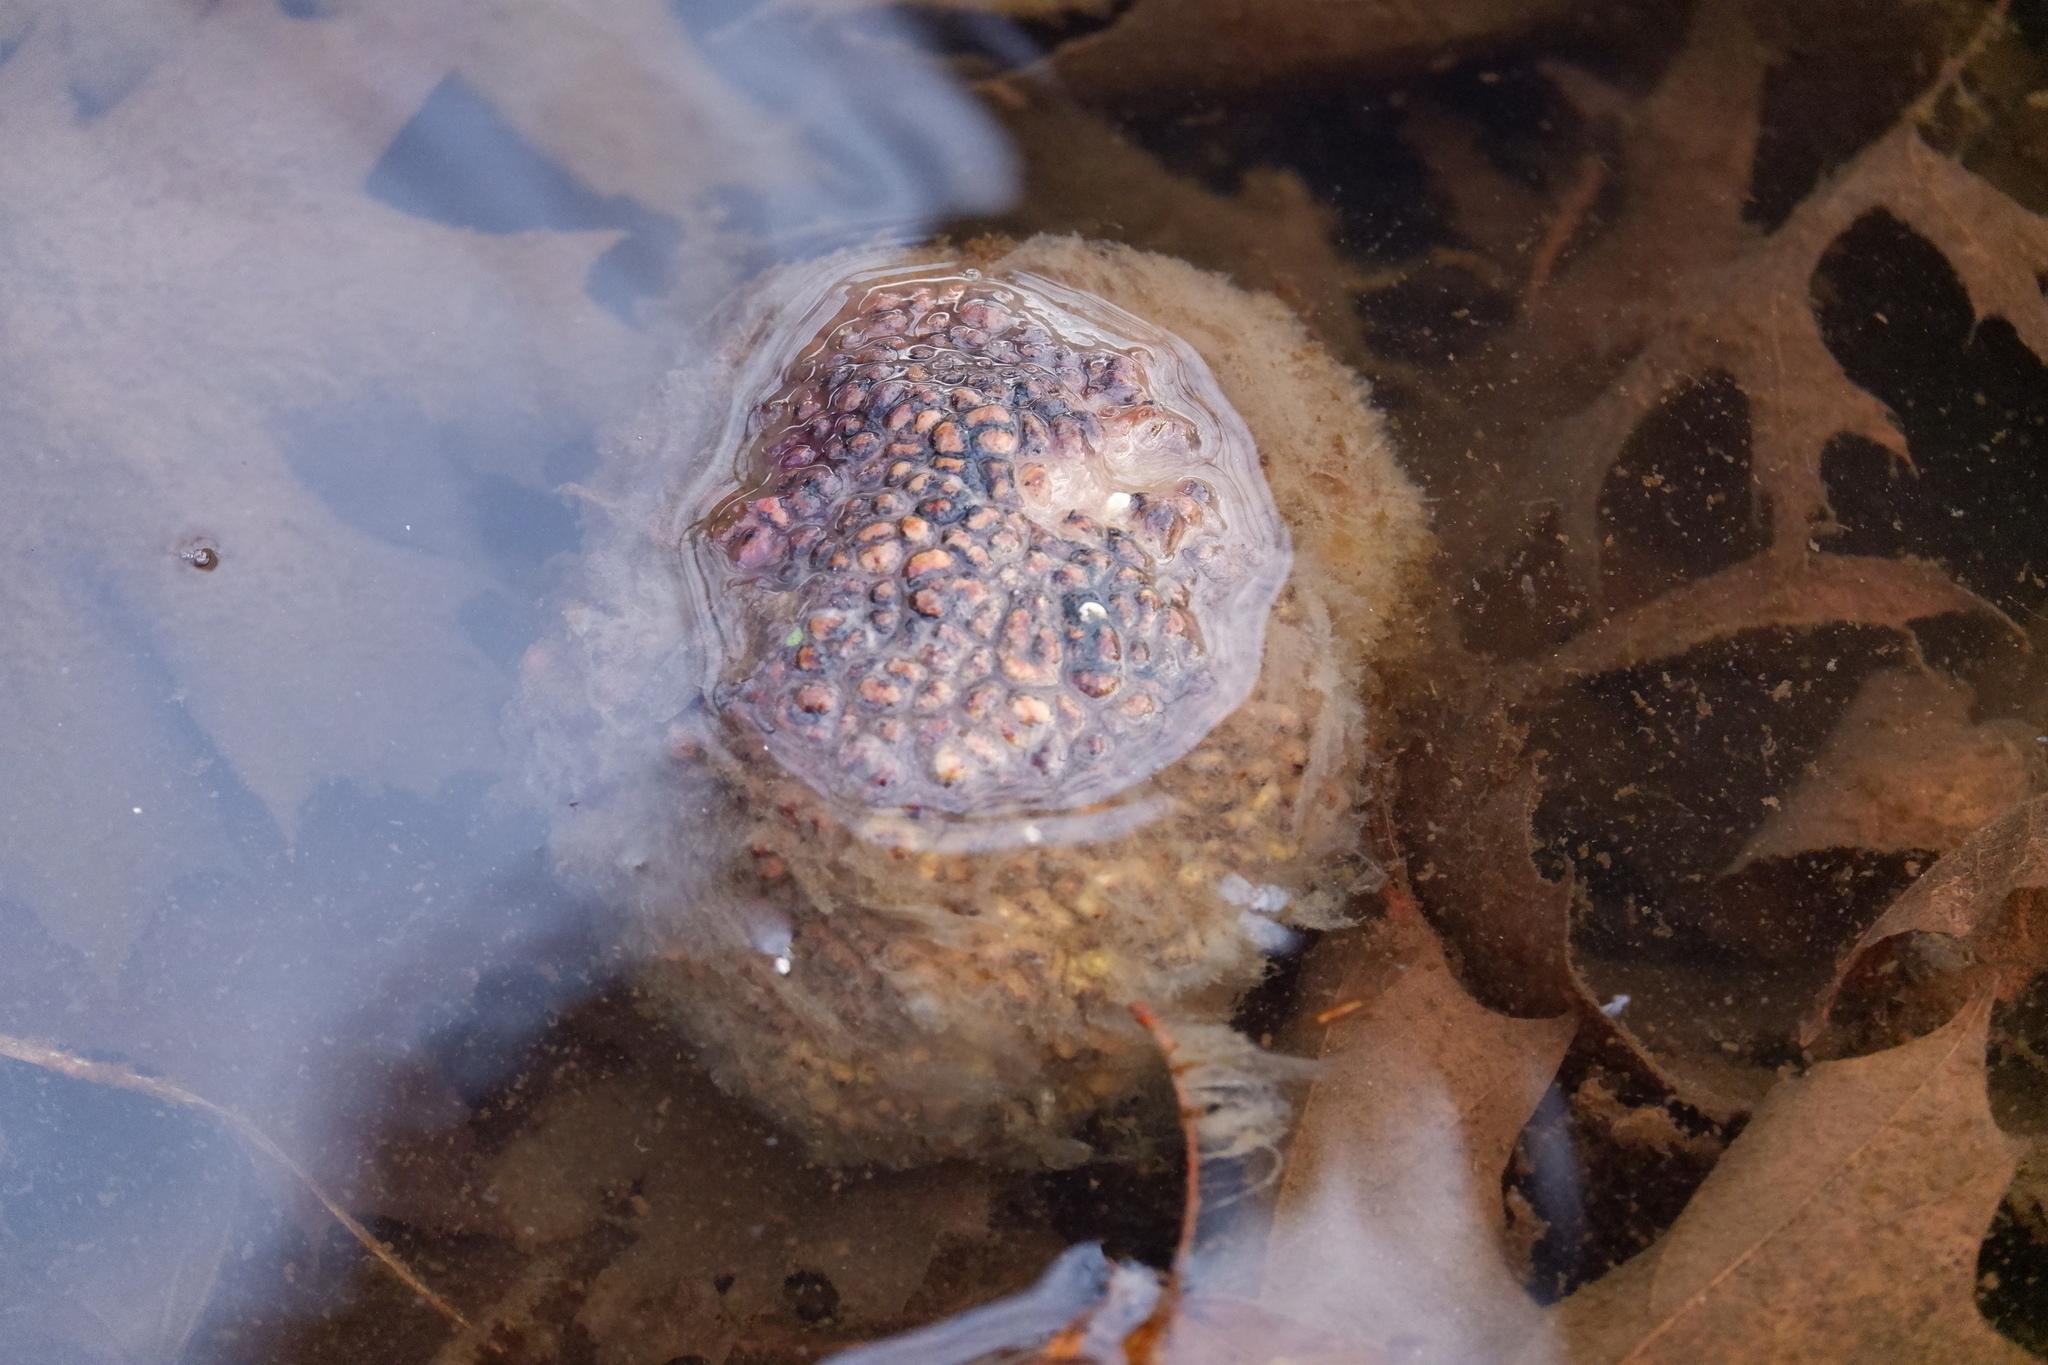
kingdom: Plantae
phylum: Tracheophyta
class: Magnoliopsida
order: Rosales
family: Moraceae
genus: Maclura
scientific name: Maclura pomifera
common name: Osage-orange
